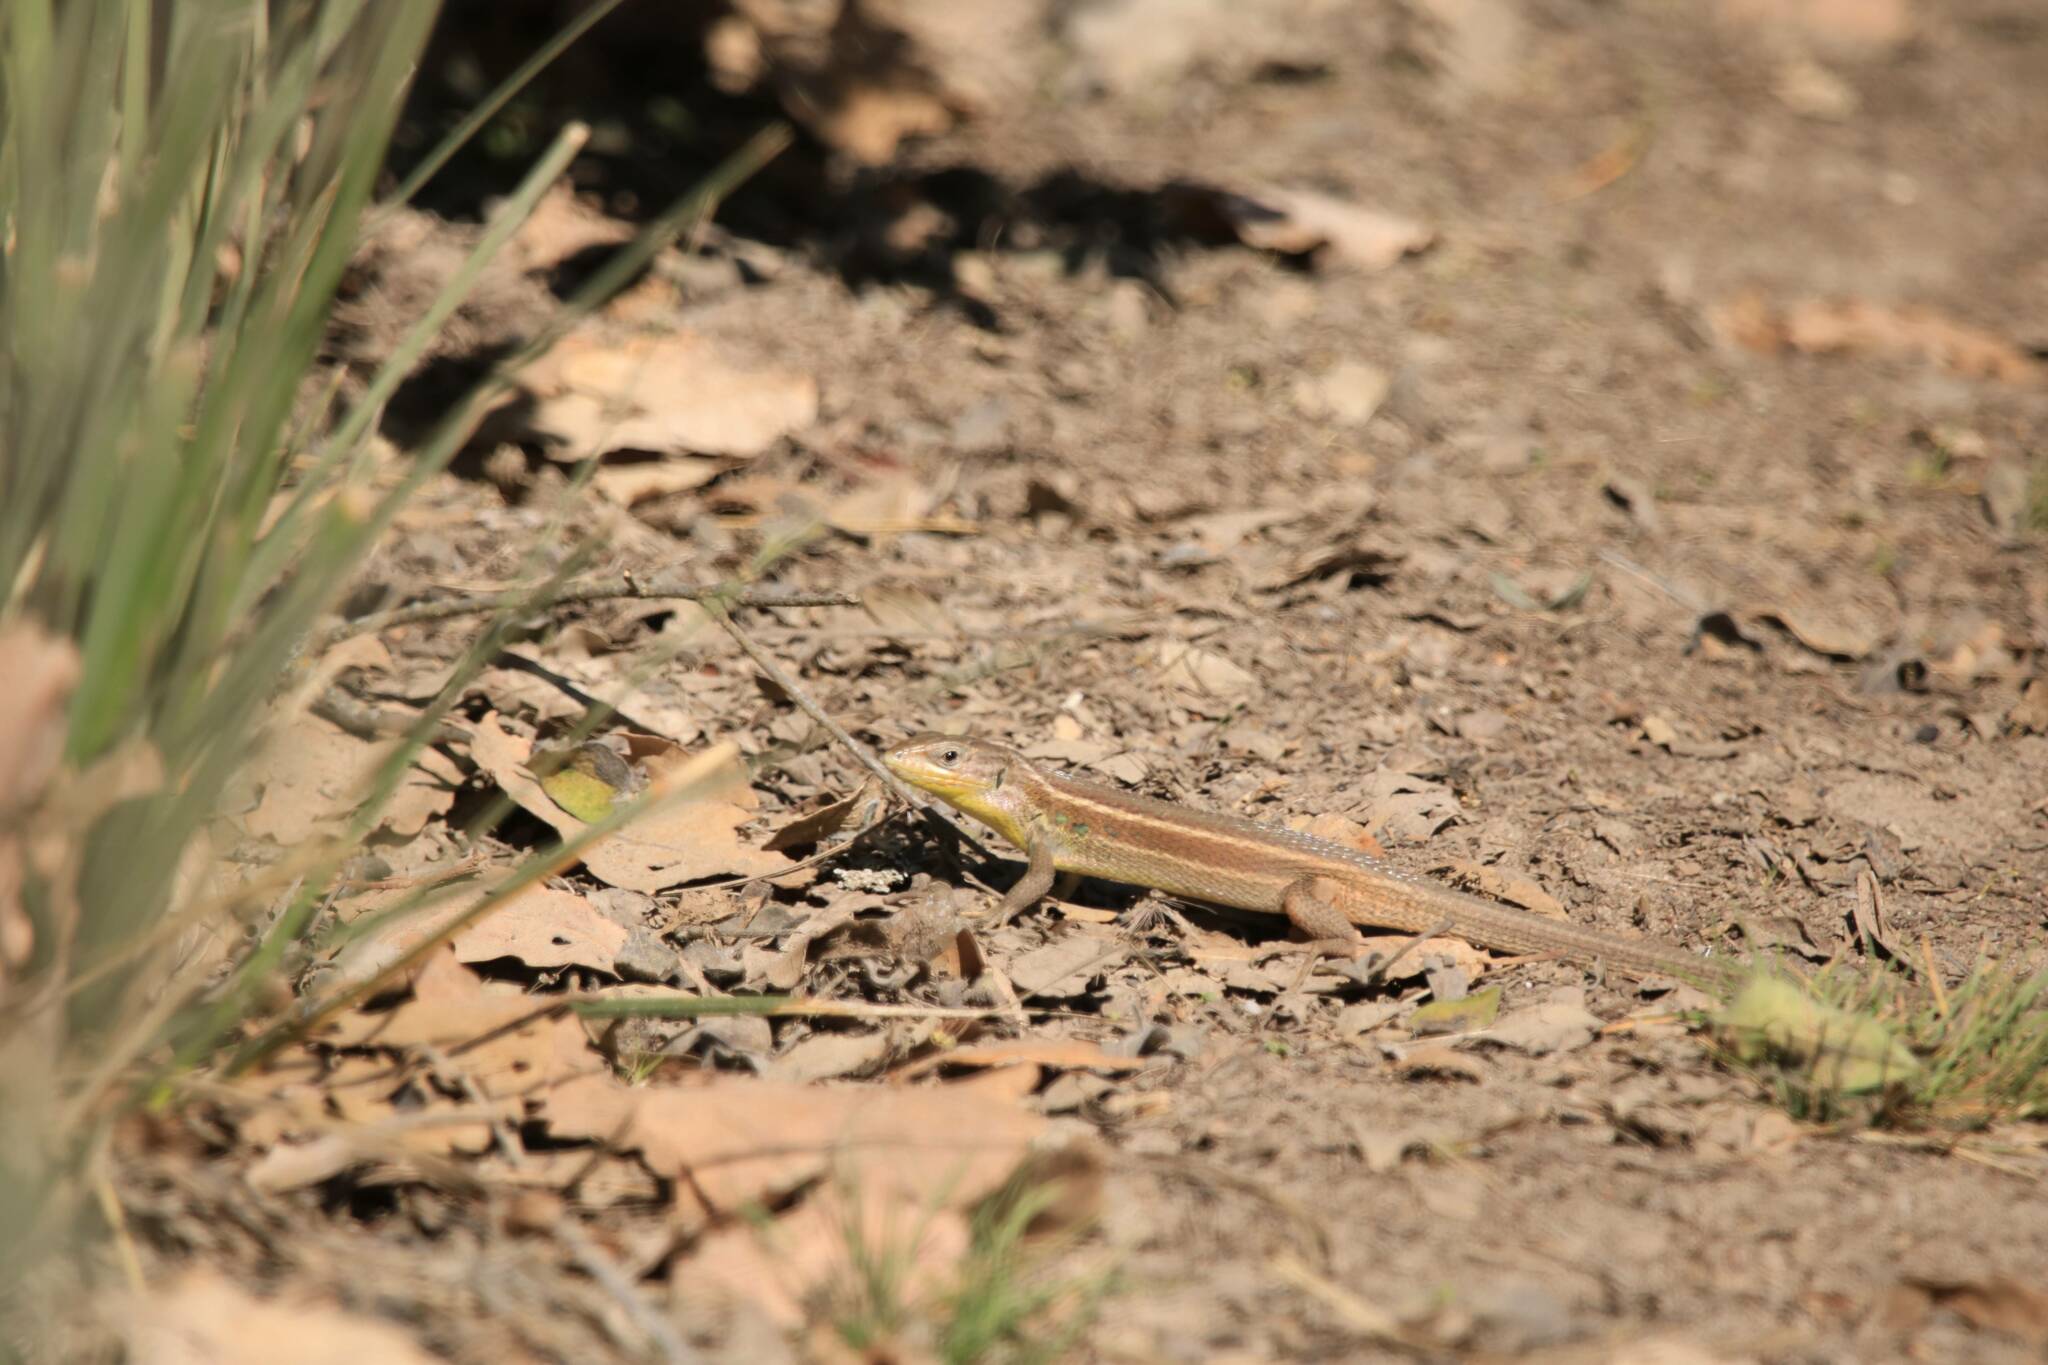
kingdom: Animalia
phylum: Chordata
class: Squamata
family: Lacertidae
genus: Psammodromus
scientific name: Psammodromus algirus
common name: Algerian psammodromus
